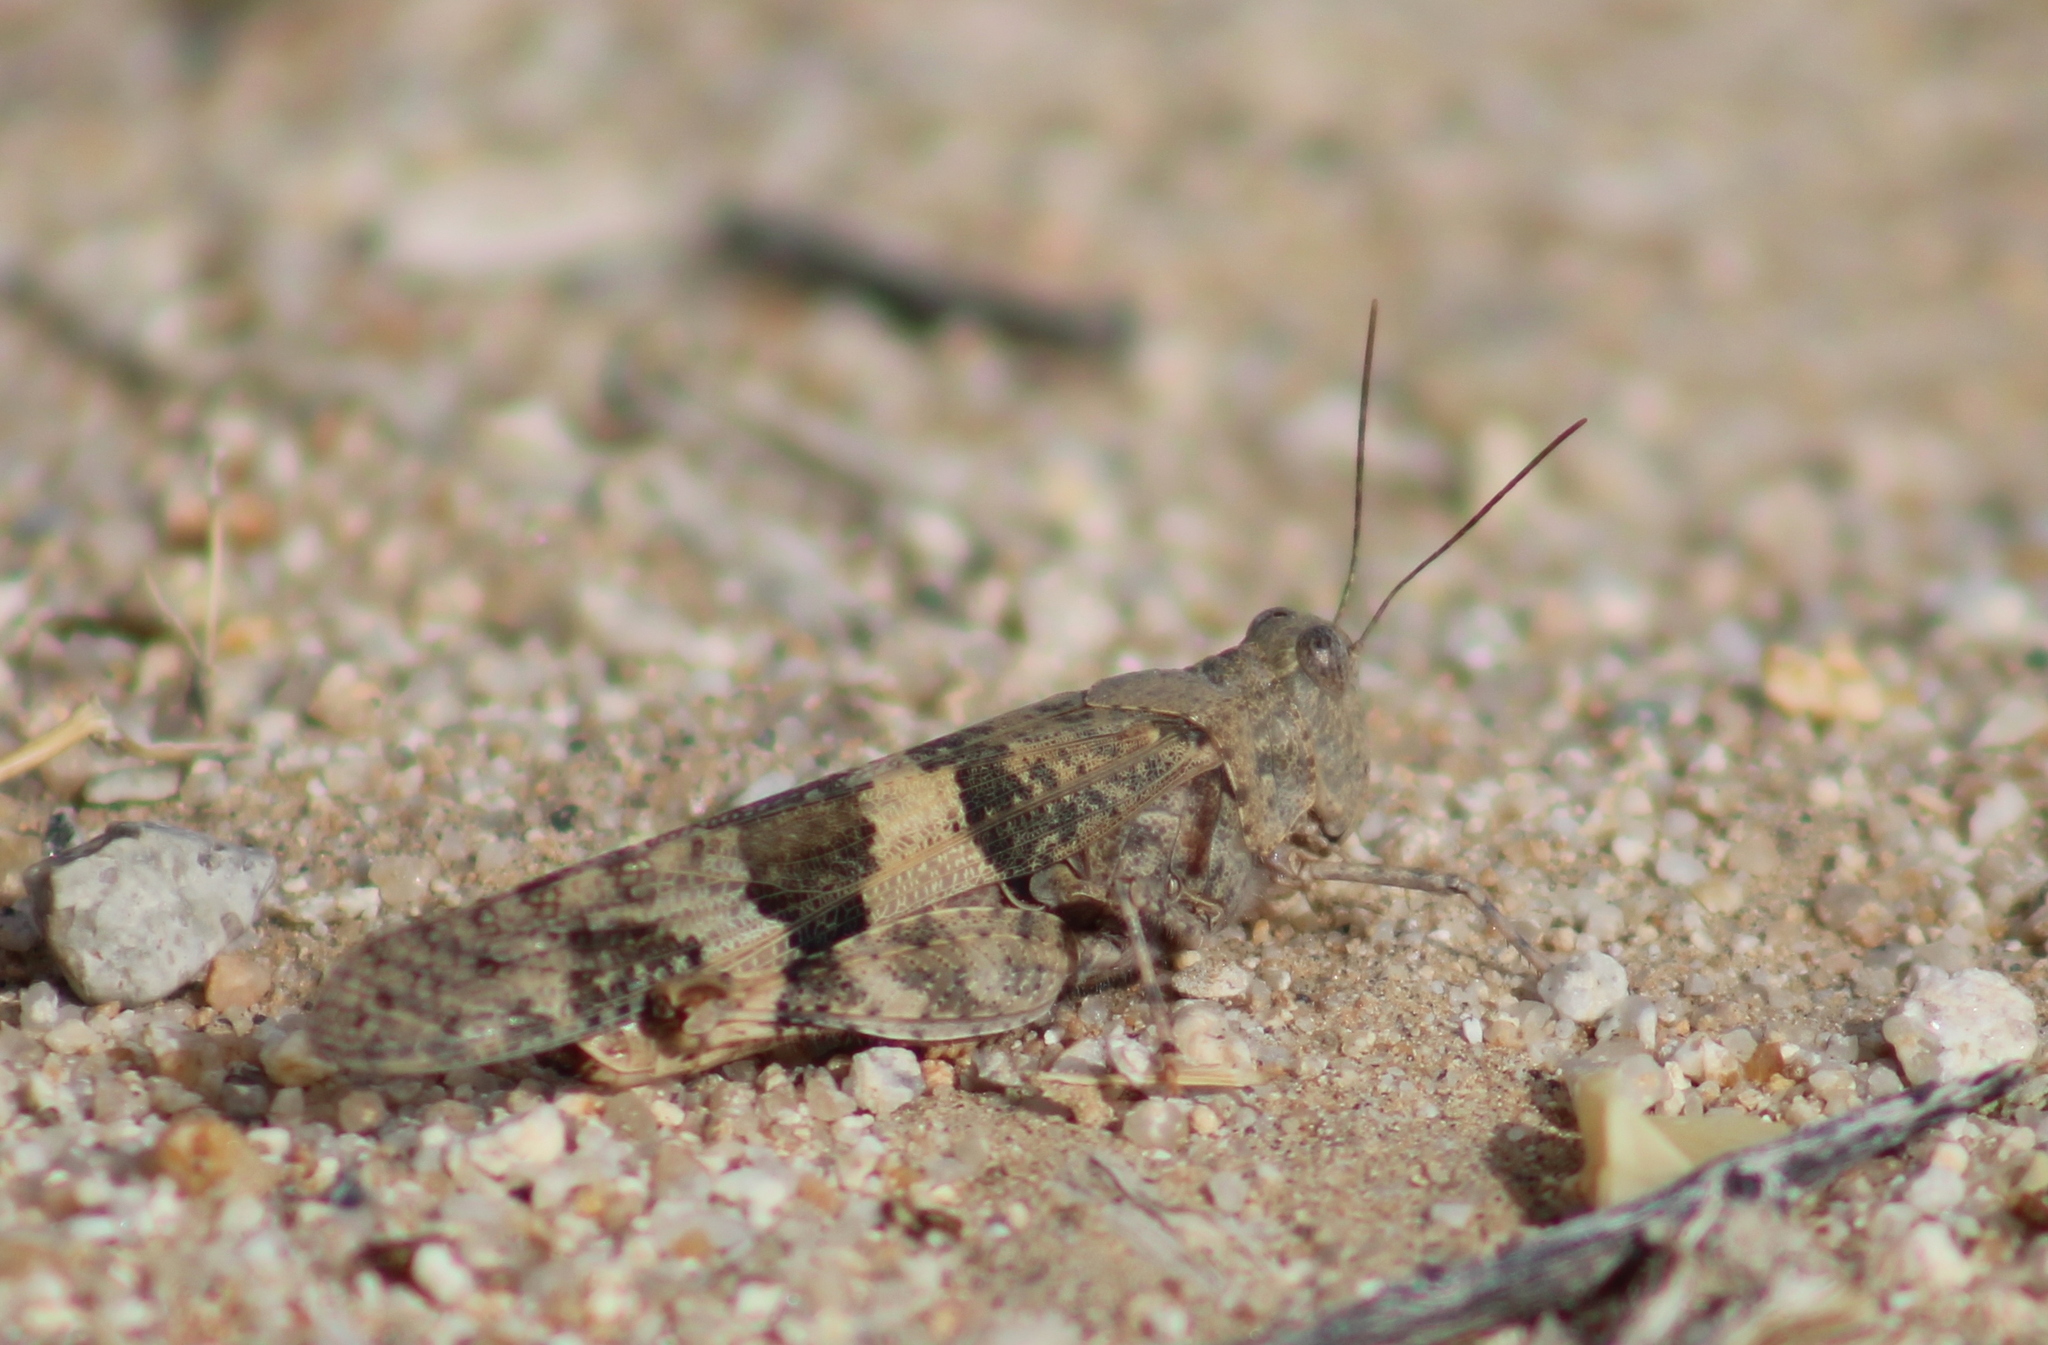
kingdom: Animalia
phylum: Arthropoda
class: Insecta
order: Orthoptera
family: Acrididae
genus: Trimerotropis
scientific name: Trimerotropis pallidipennis
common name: Pallid-winged grasshopper
